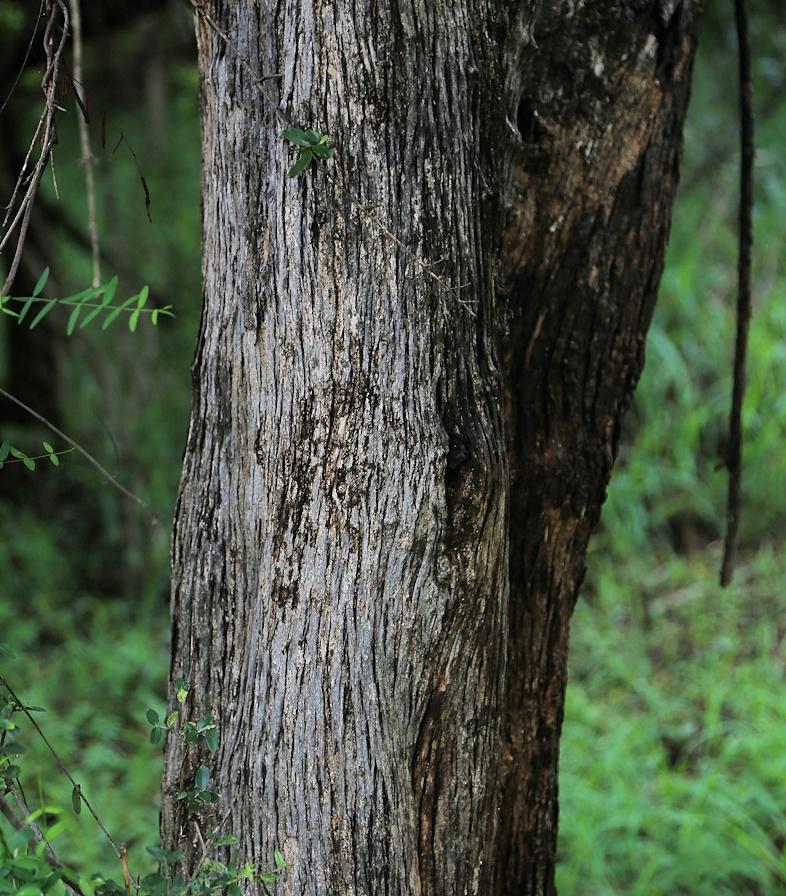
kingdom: Plantae
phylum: Tracheophyta
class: Magnoliopsida
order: Lamiales
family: Oleaceae
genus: Olea
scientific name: Olea europaea
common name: Olive
